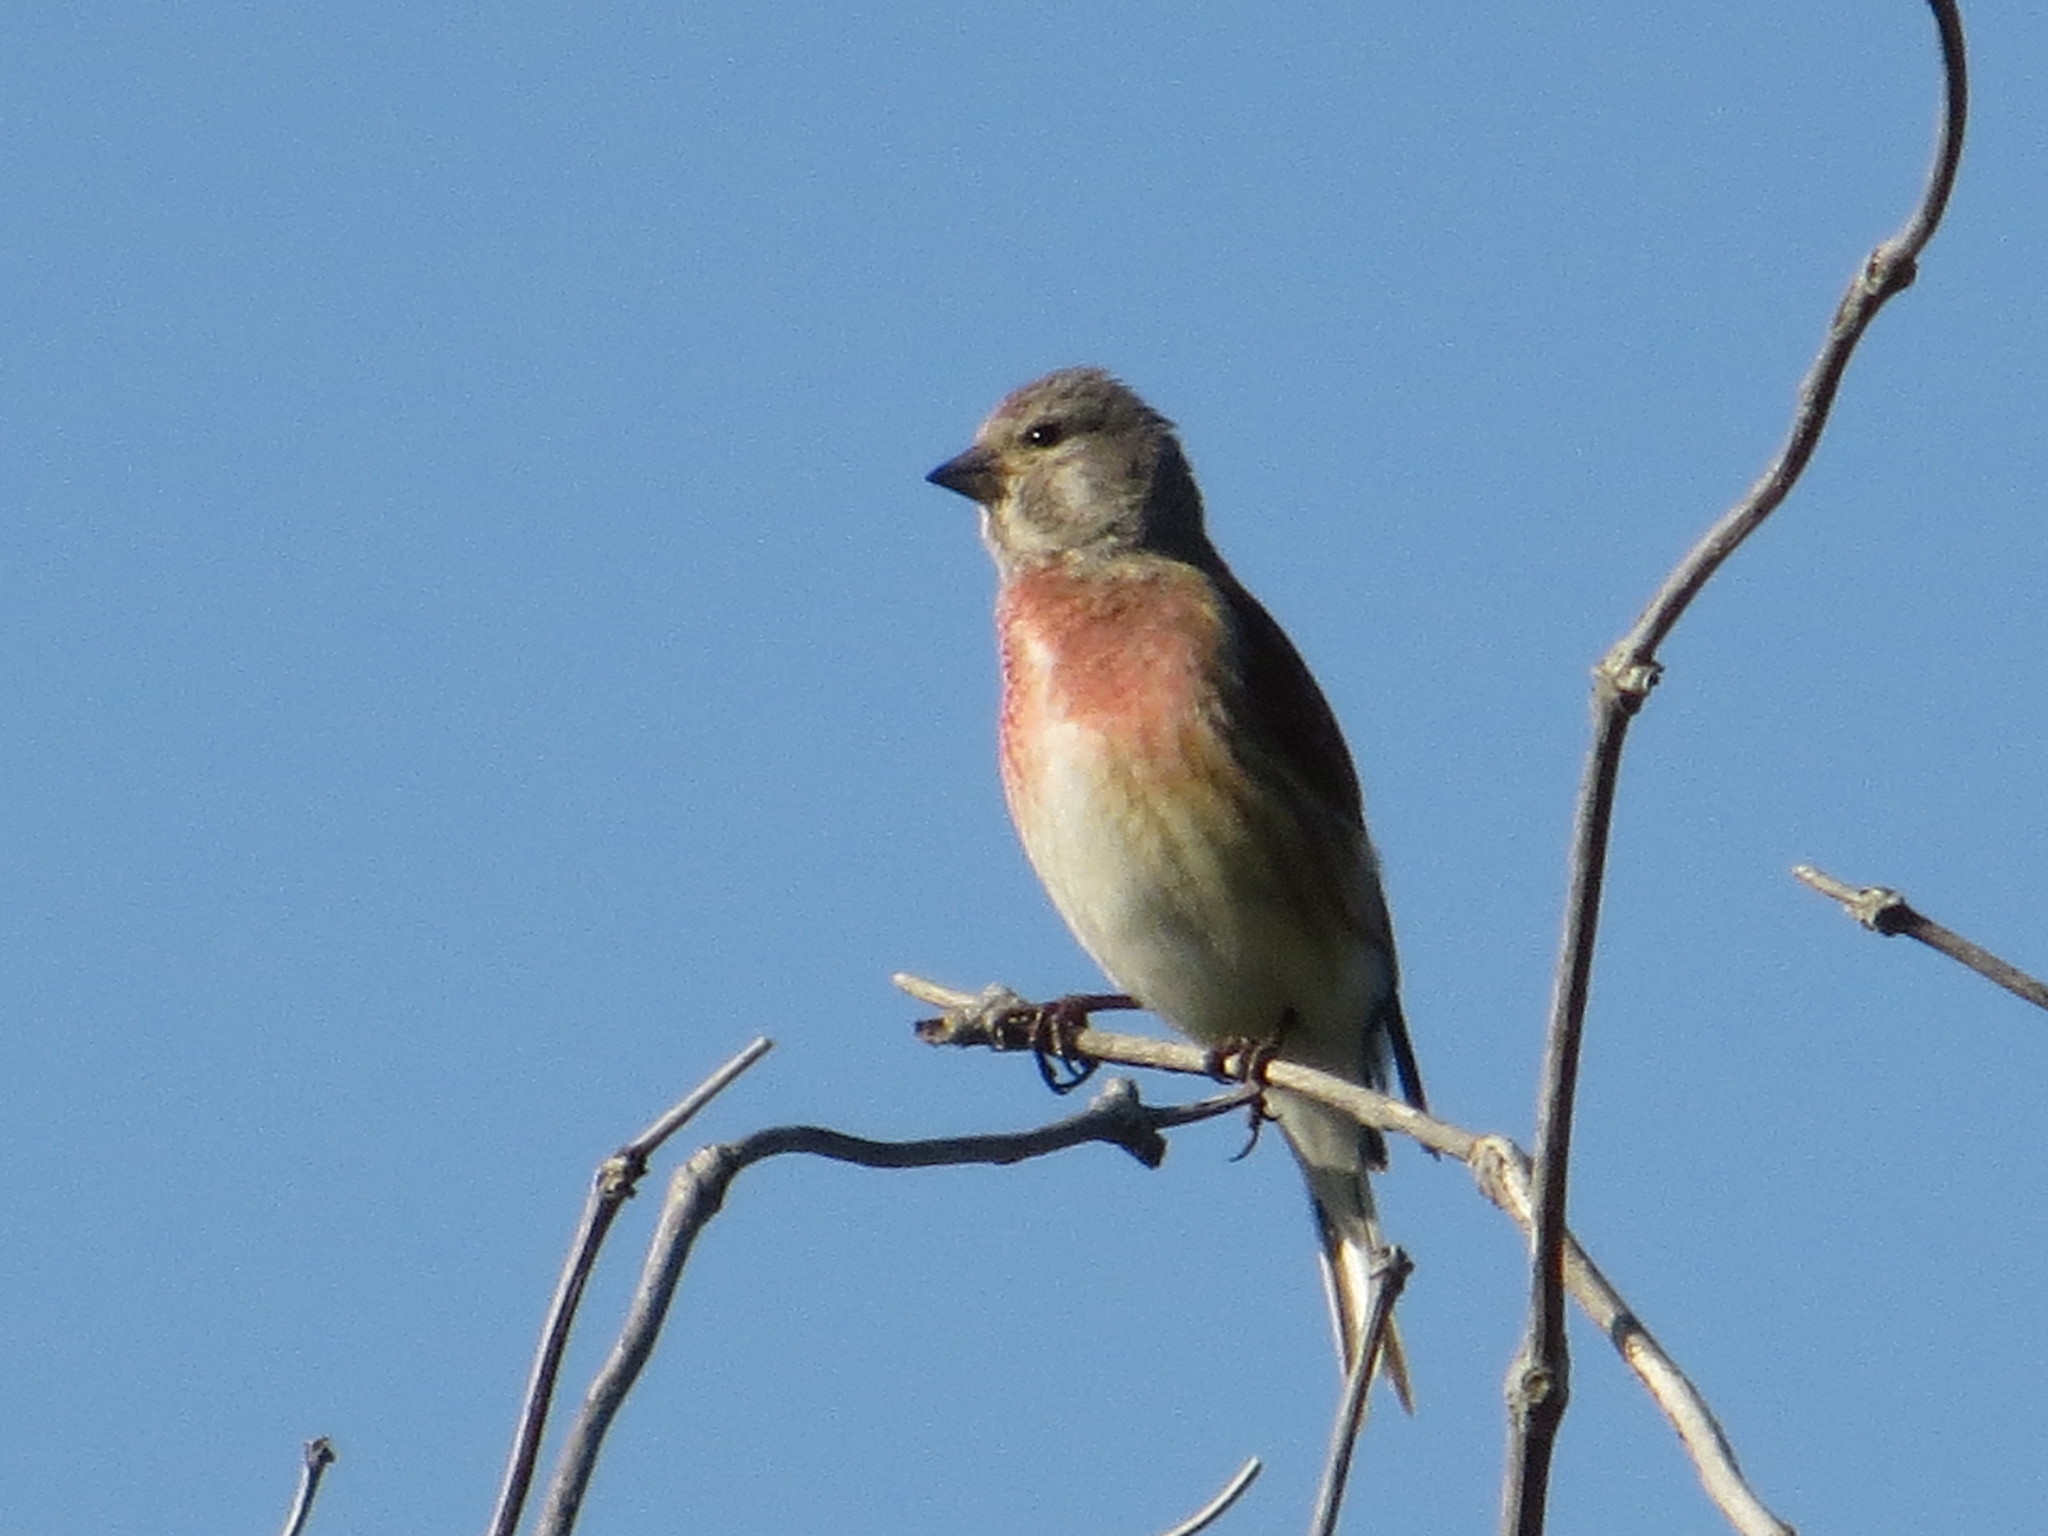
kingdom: Animalia
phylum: Chordata
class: Aves
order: Passeriformes
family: Fringillidae
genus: Linaria
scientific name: Linaria cannabina
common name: Common linnet
